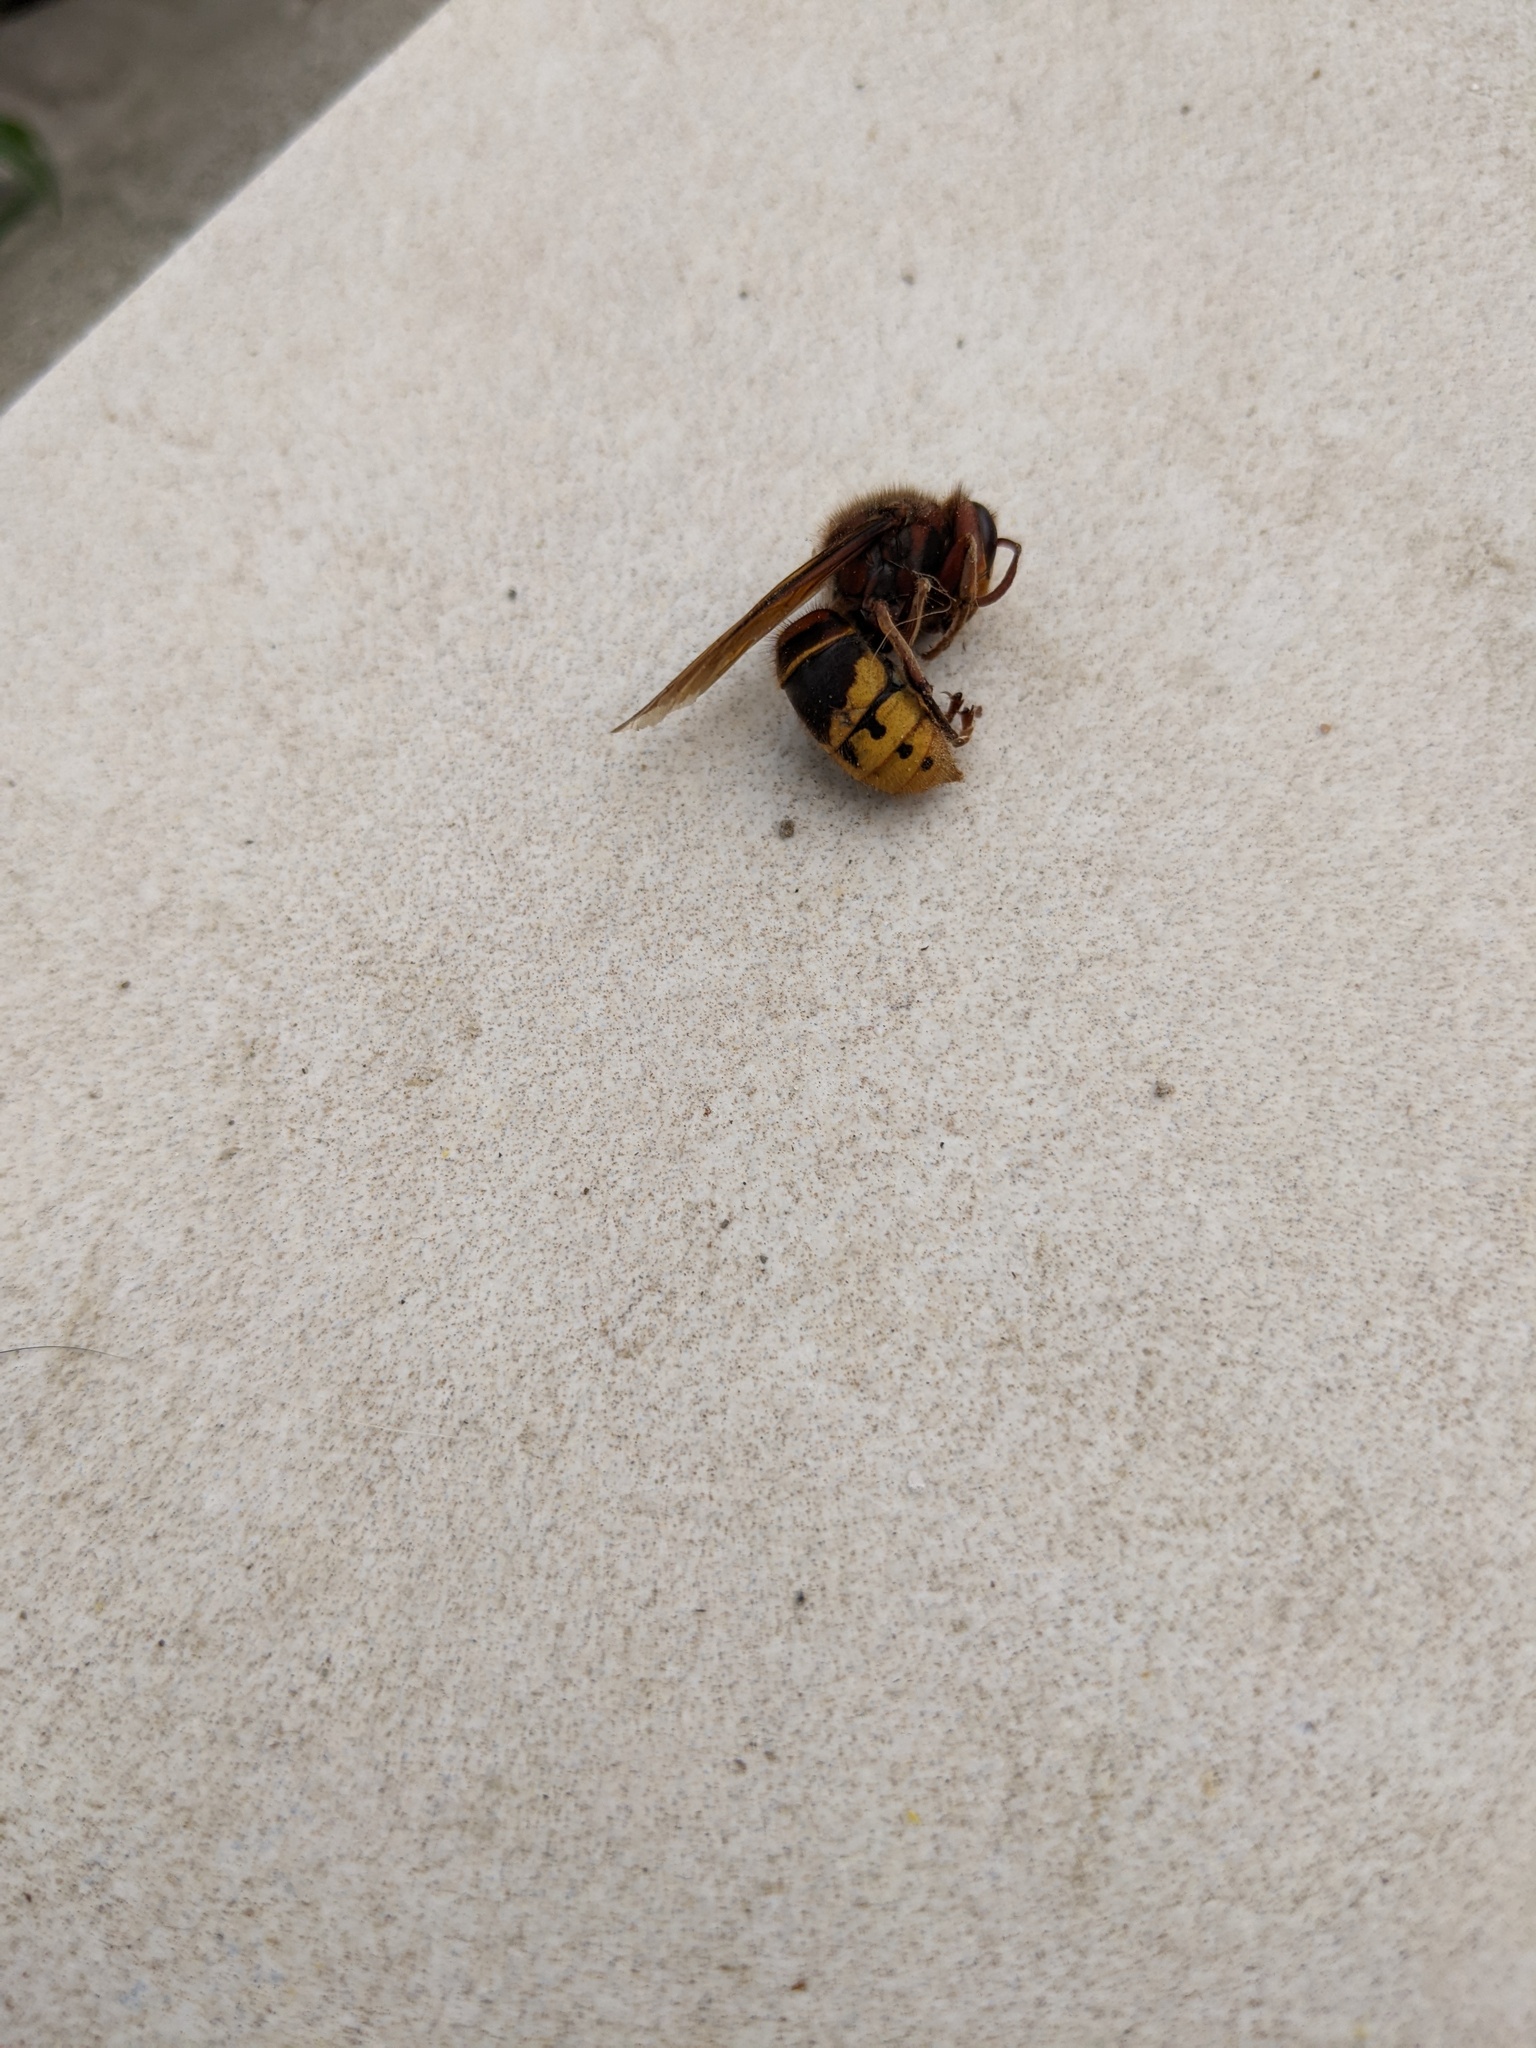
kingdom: Animalia
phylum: Arthropoda
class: Insecta
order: Hymenoptera
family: Vespidae
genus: Vespa
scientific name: Vespa crabro
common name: Hornet
